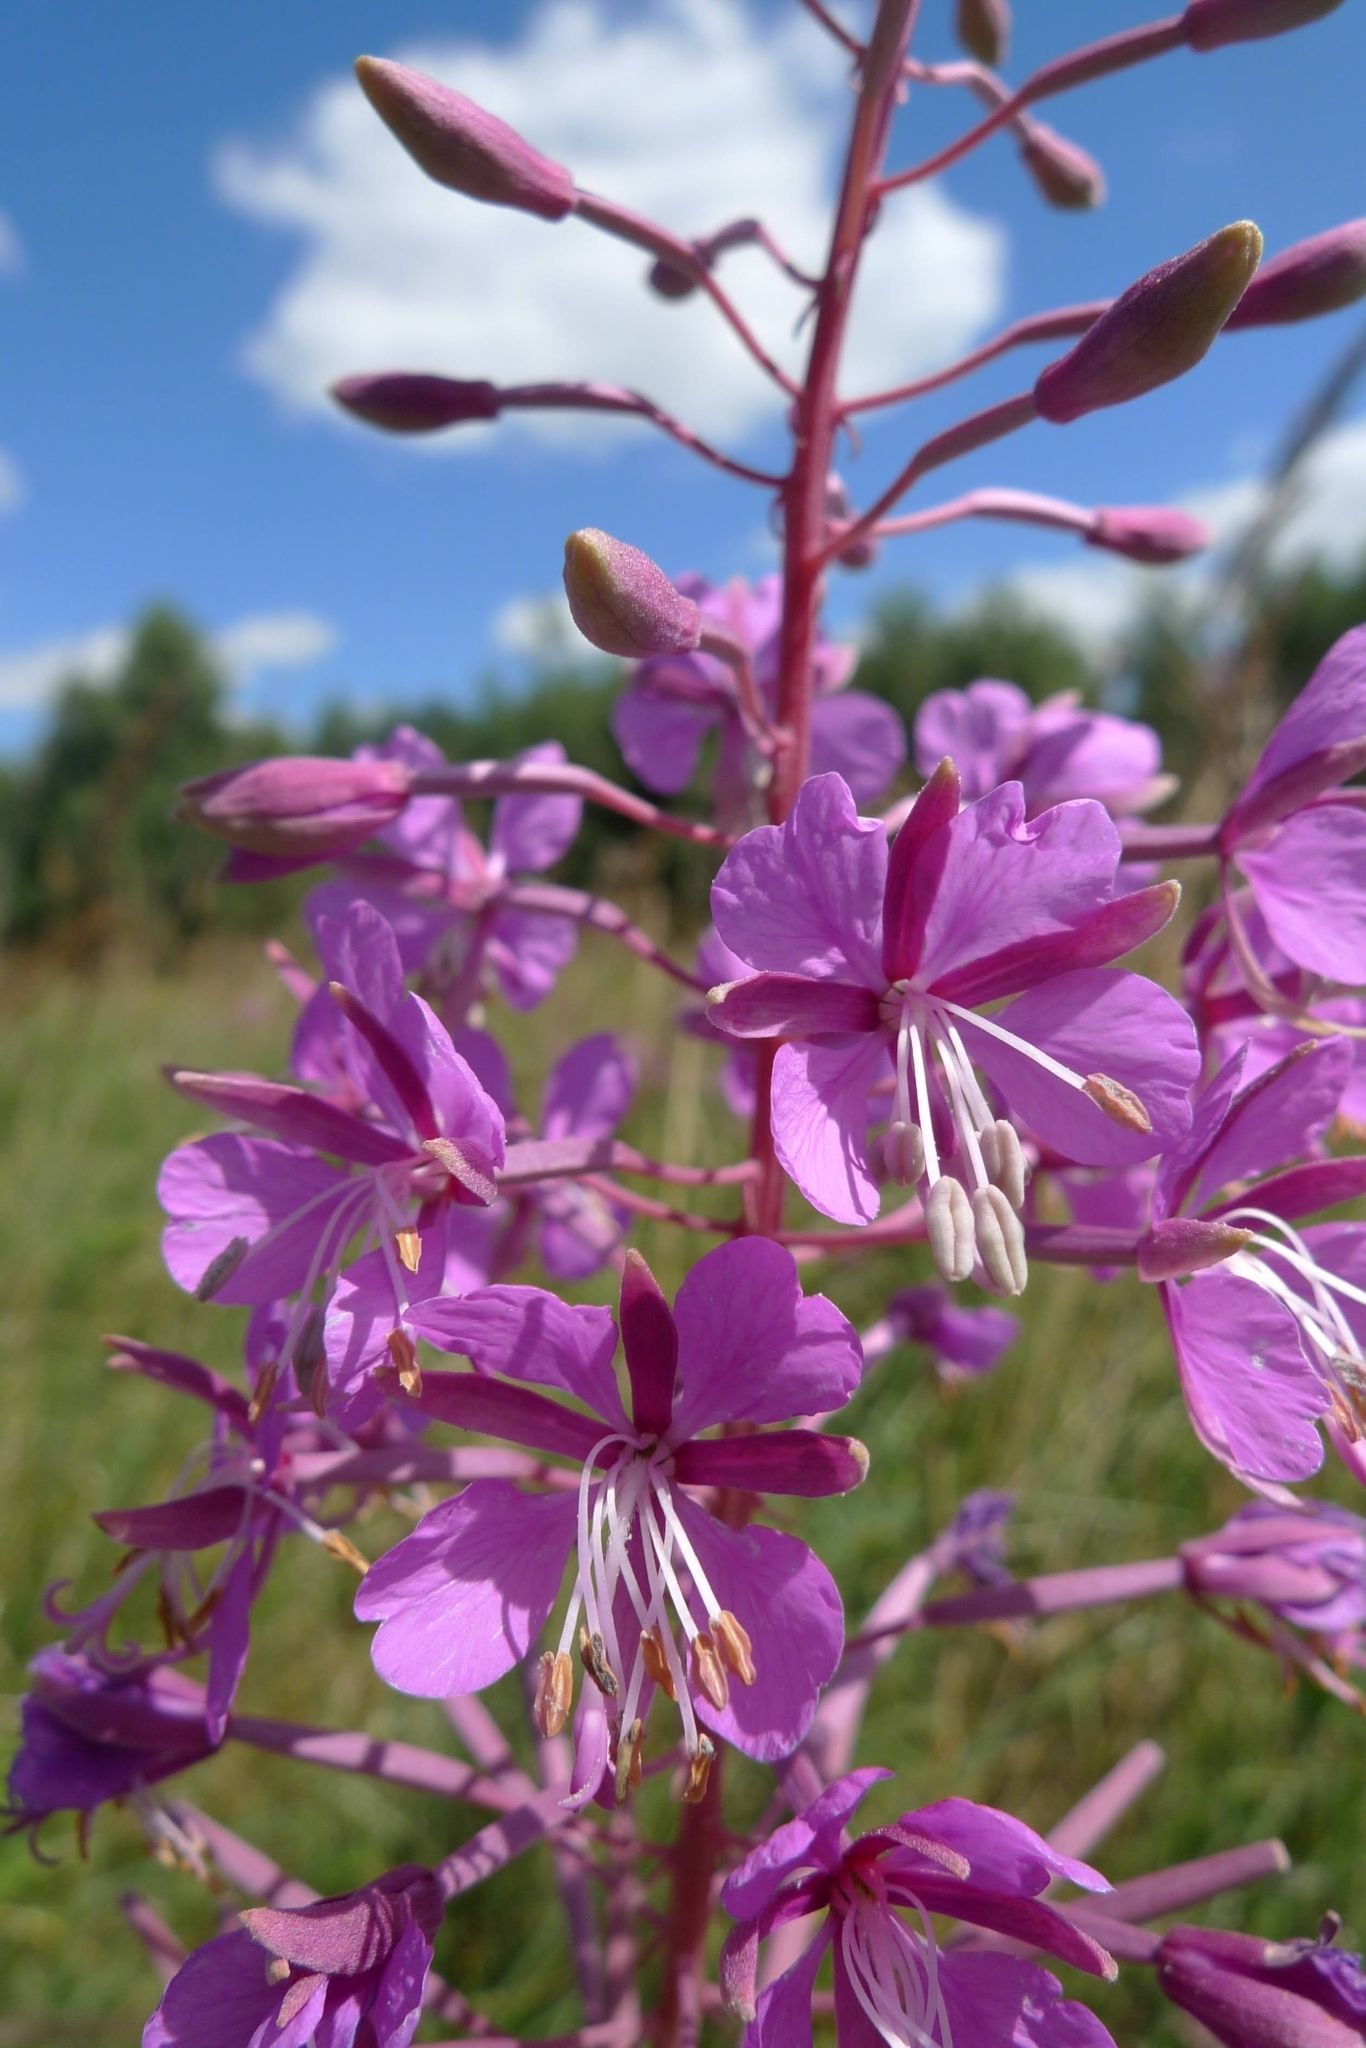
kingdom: Plantae
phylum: Tracheophyta
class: Magnoliopsida
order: Myrtales
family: Onagraceae
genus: Chamaenerion
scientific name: Chamaenerion angustifolium
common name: Fireweed
